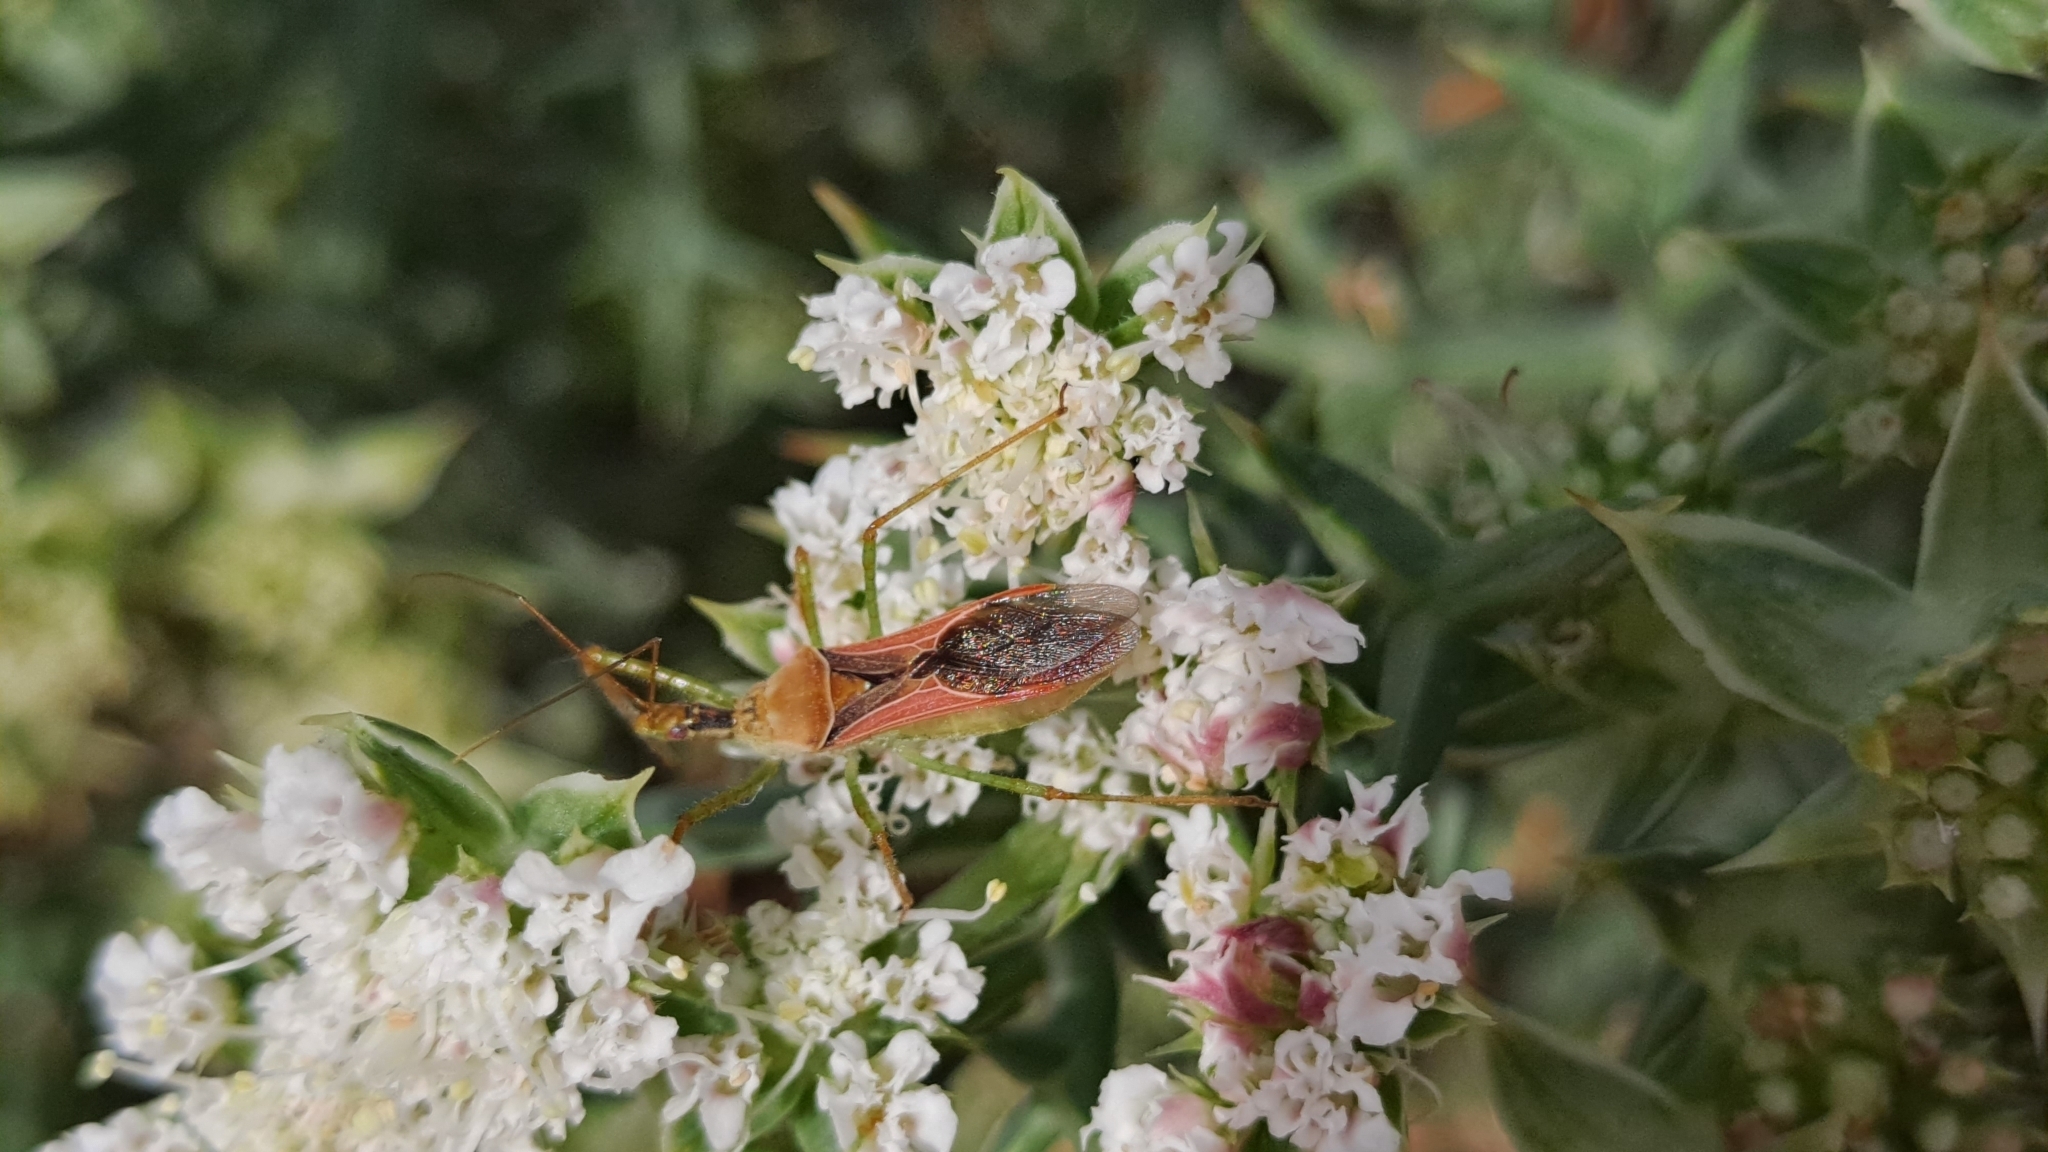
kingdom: Animalia
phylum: Arthropoda
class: Insecta
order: Hemiptera
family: Reduviidae
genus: Zelus
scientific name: Zelus renardii
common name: Assassin bug
